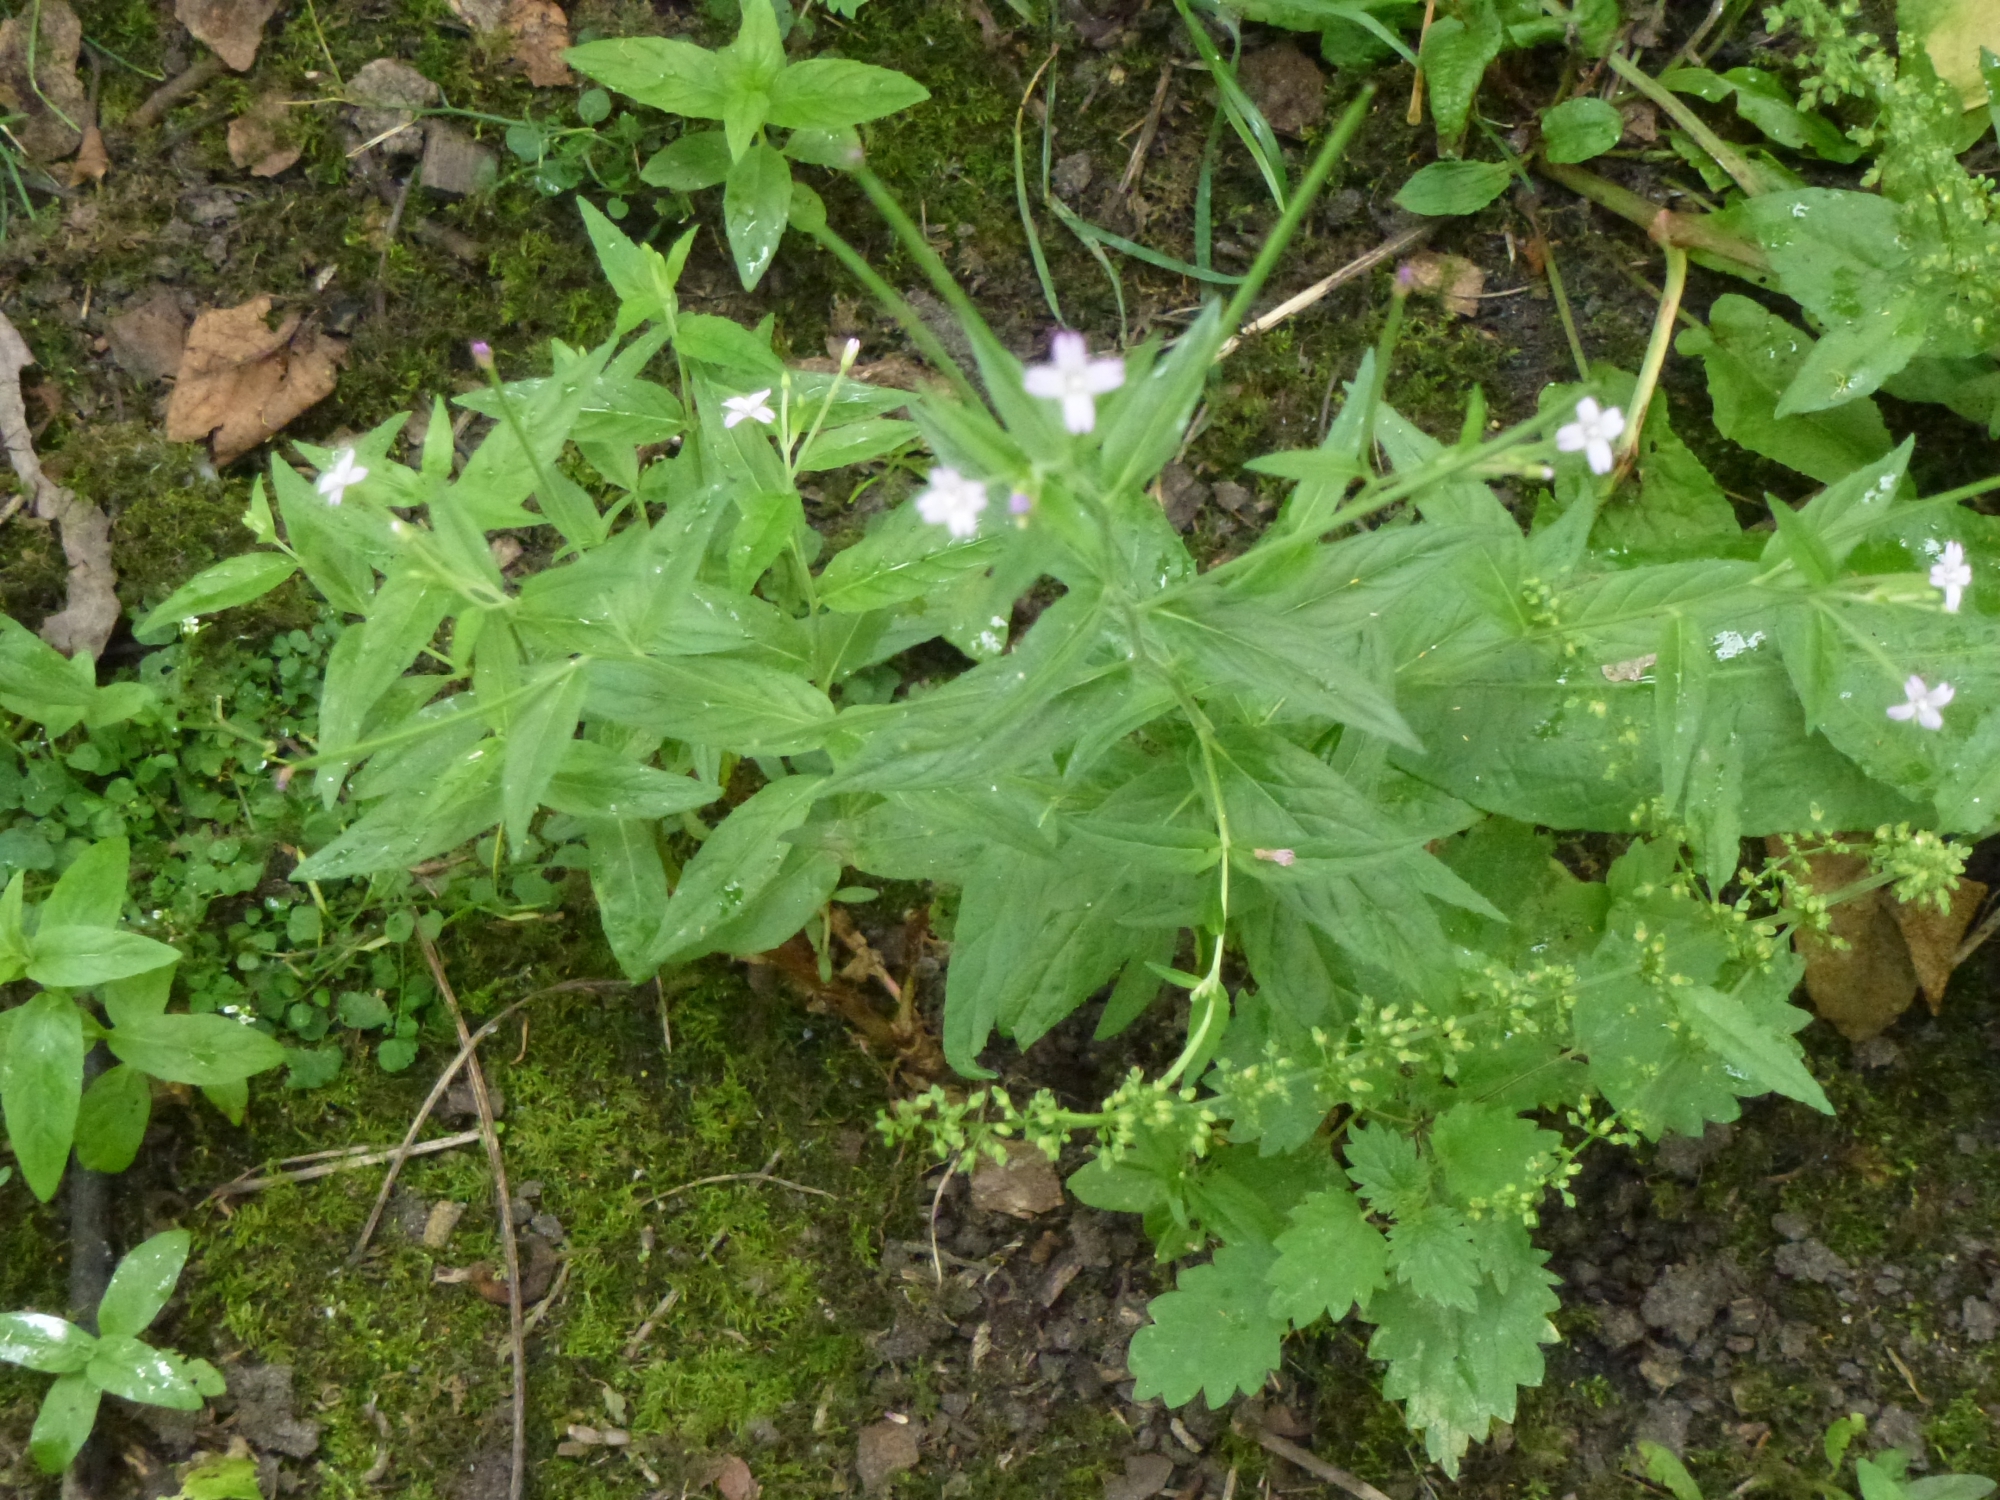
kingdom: Plantae
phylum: Tracheophyta
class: Magnoliopsida
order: Myrtales
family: Onagraceae
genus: Epilobium
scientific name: Epilobium ciliatum
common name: American willowherb
